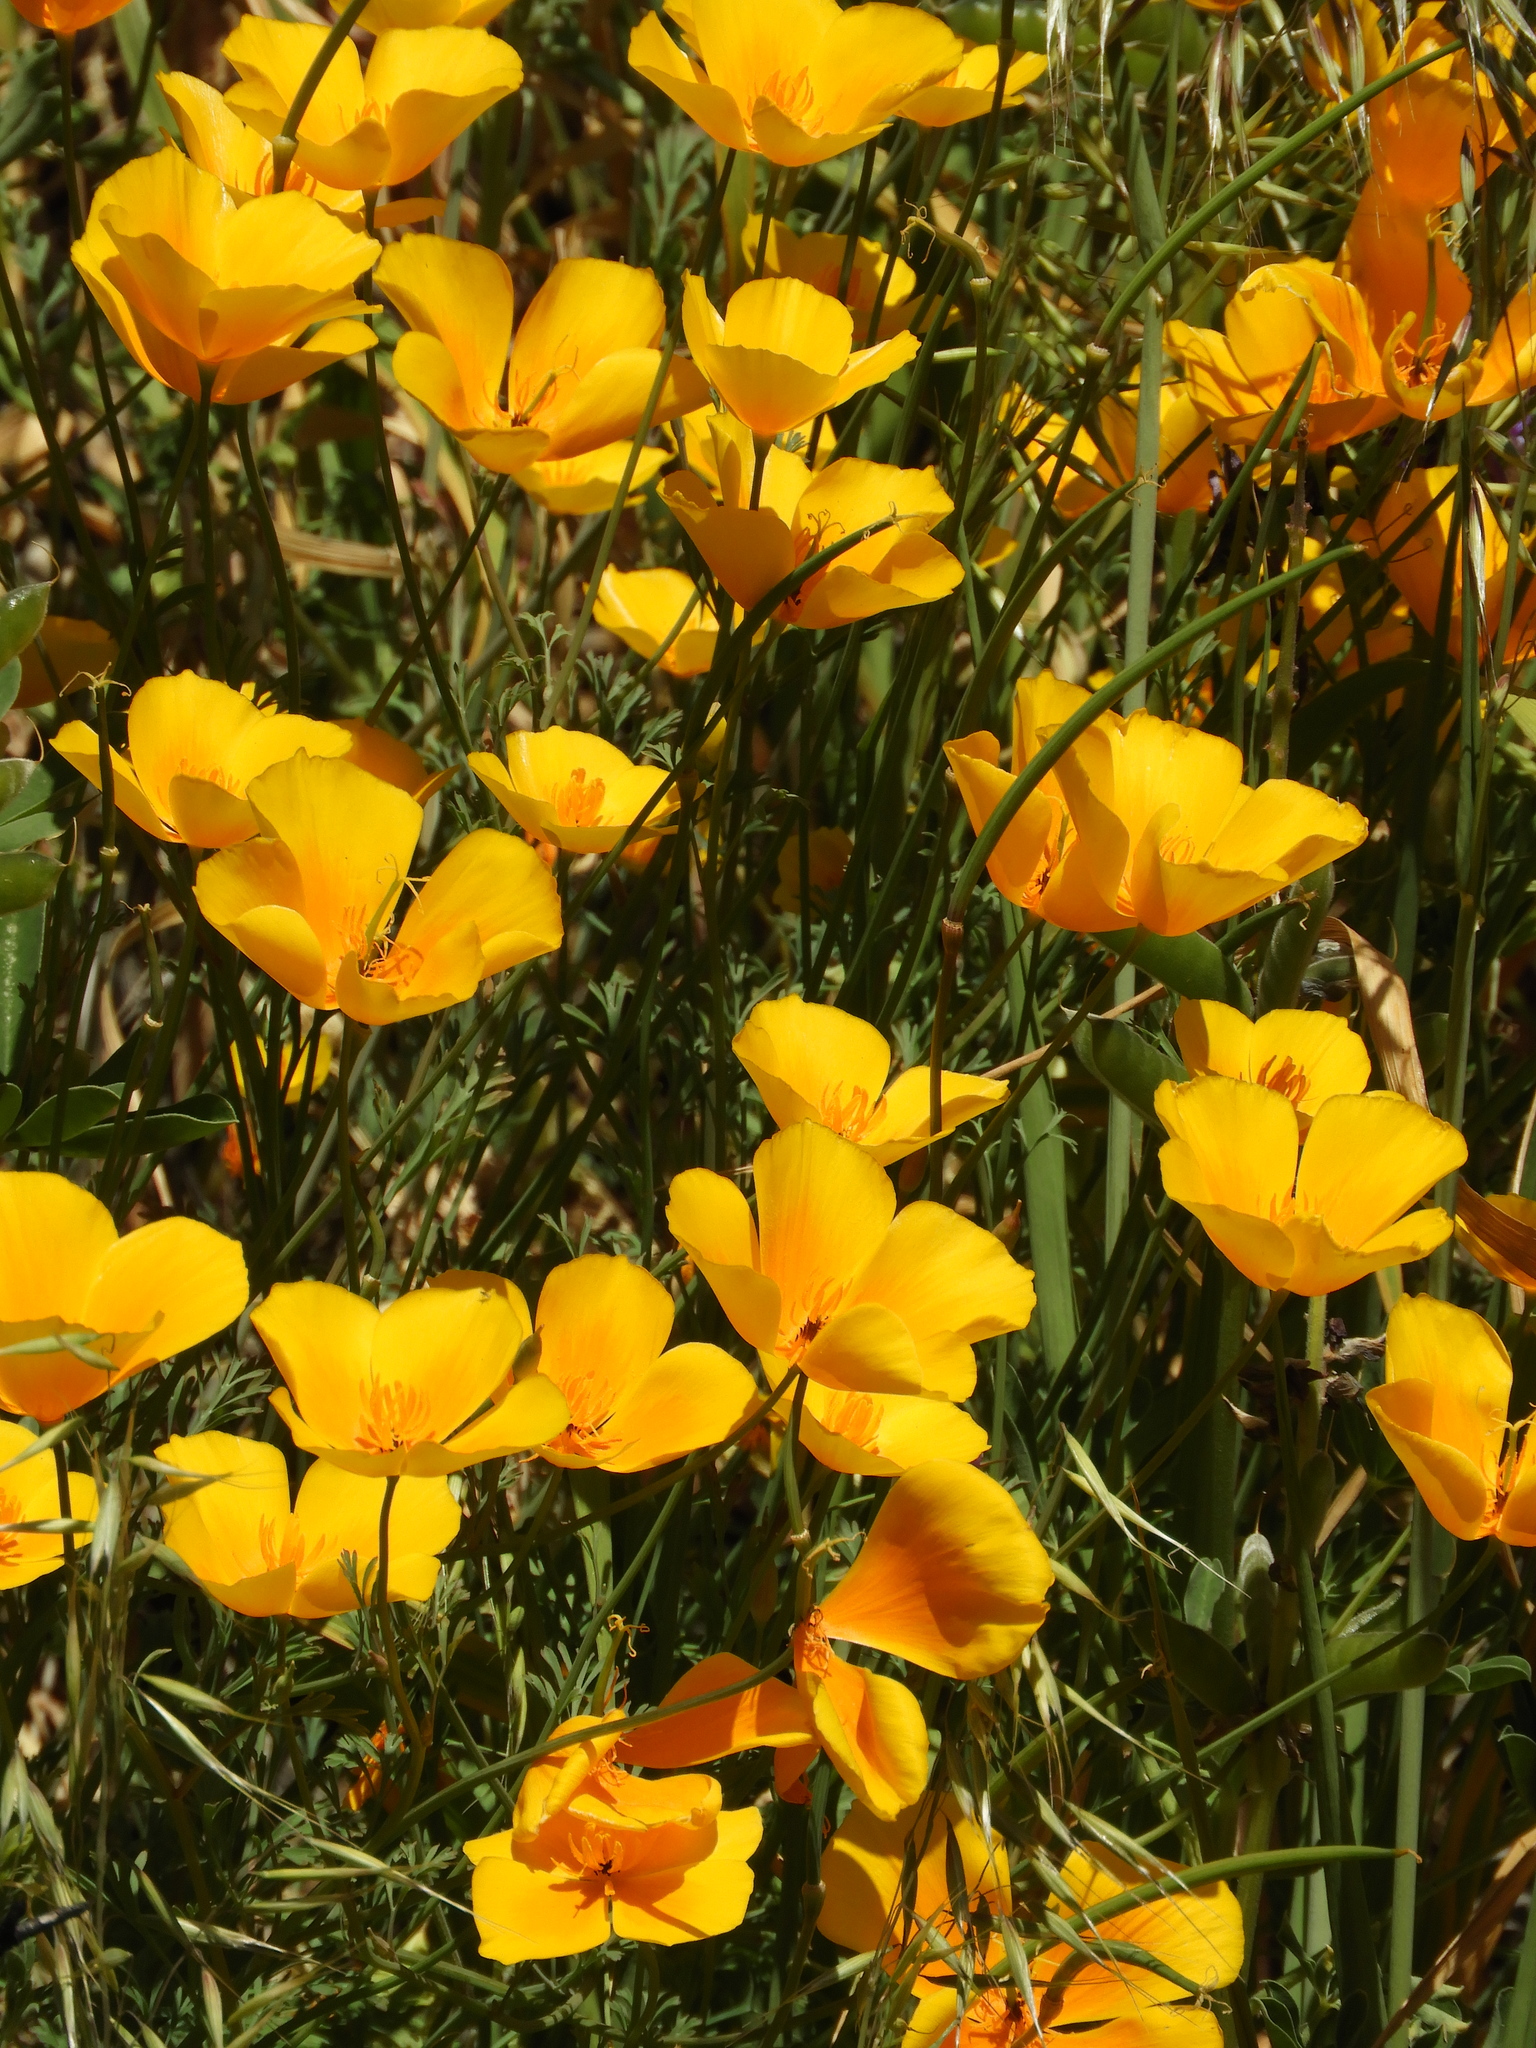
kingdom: Plantae
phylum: Tracheophyta
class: Magnoliopsida
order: Ranunculales
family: Papaveraceae
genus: Eschscholzia
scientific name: Eschscholzia caespitosa
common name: Tufted california-poppy
